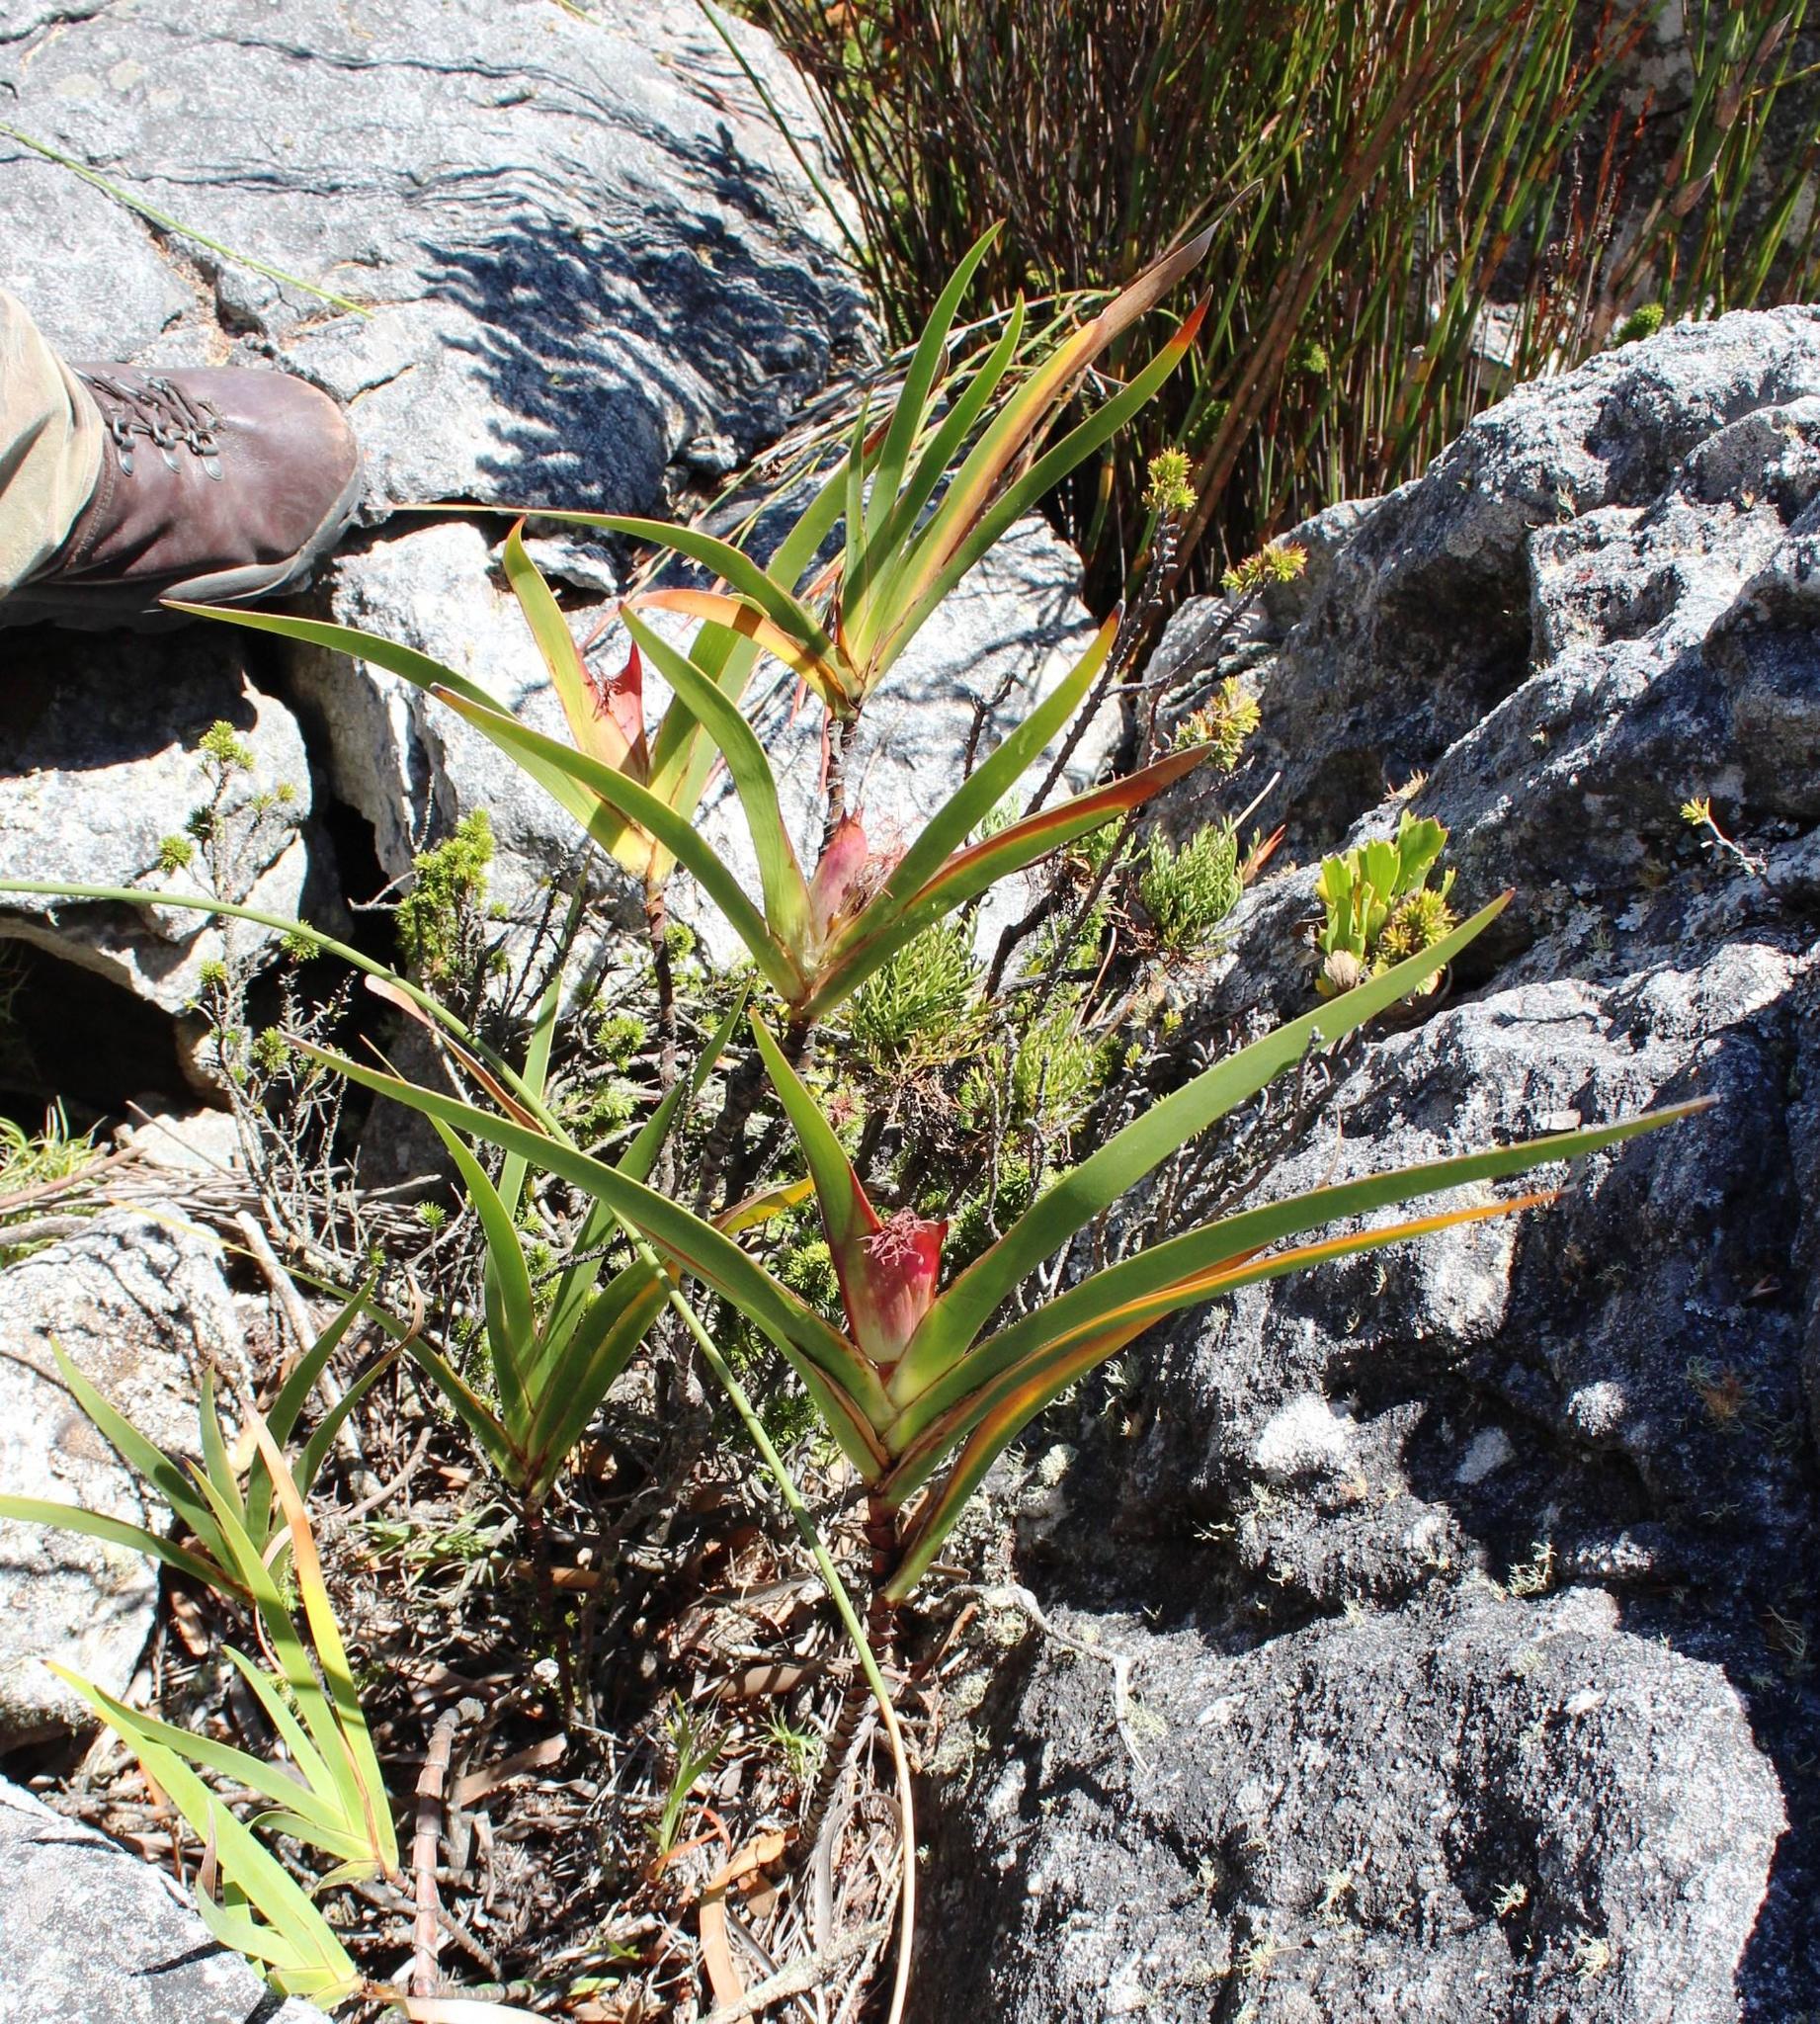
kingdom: Plantae
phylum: Tracheophyta
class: Liliopsida
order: Asparagales
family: Iridaceae
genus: Klattia
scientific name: Klattia stokoei
